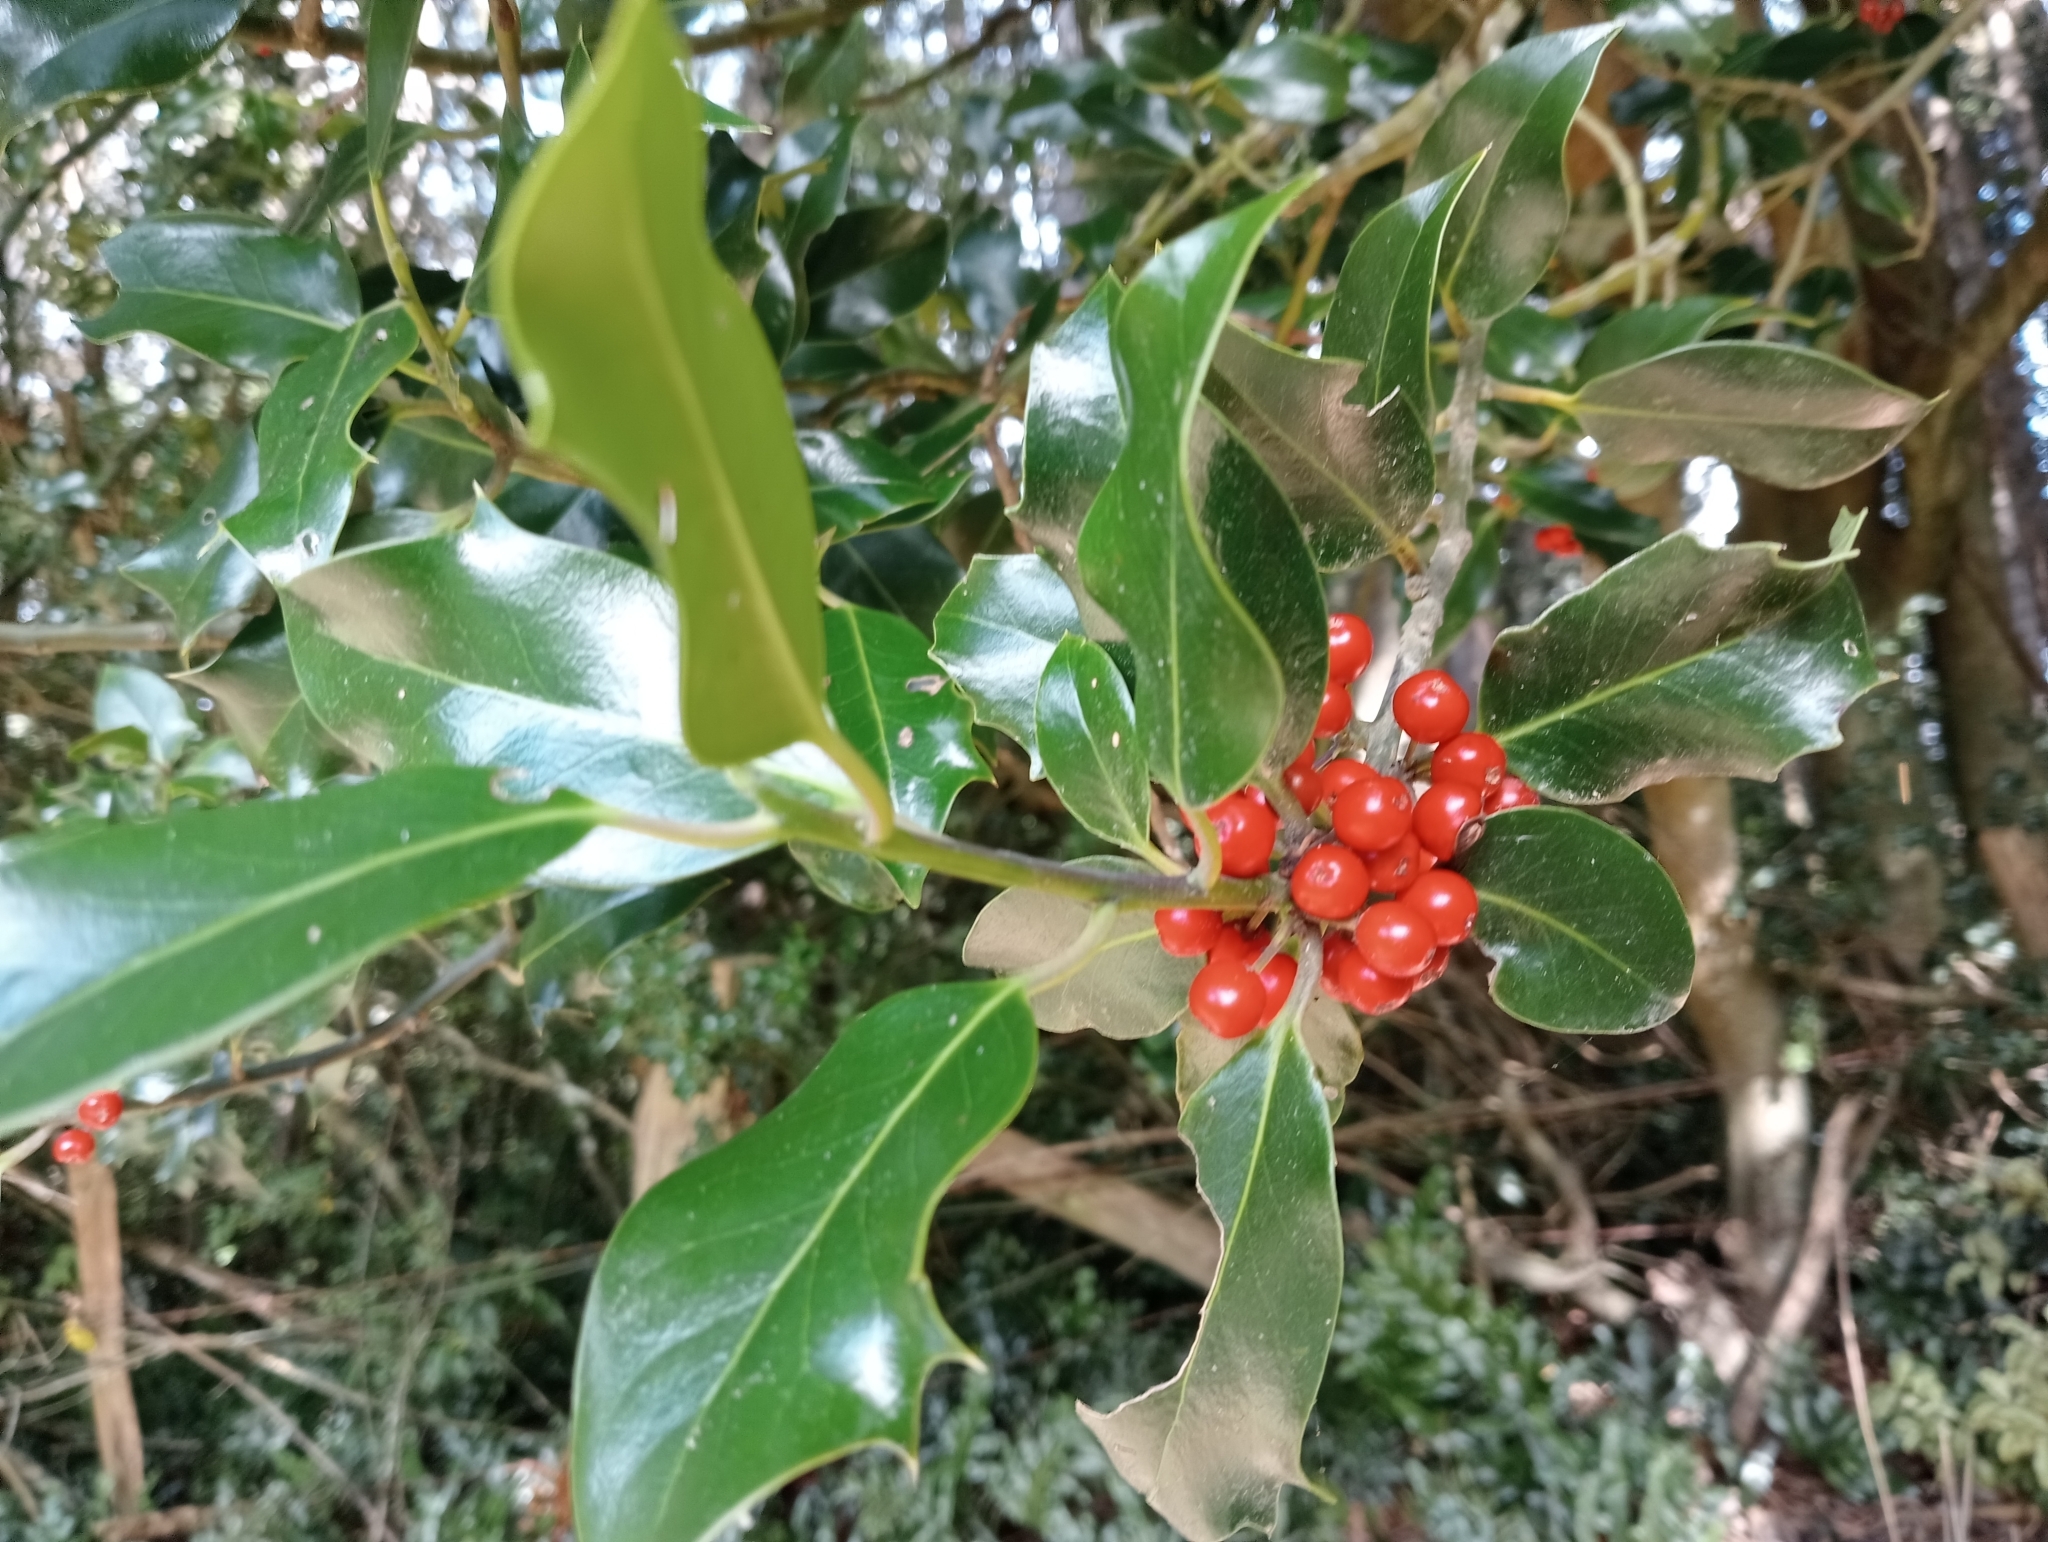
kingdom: Plantae
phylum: Tracheophyta
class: Magnoliopsida
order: Aquifoliales
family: Aquifoliaceae
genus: Ilex
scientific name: Ilex aquifolium
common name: English holly
